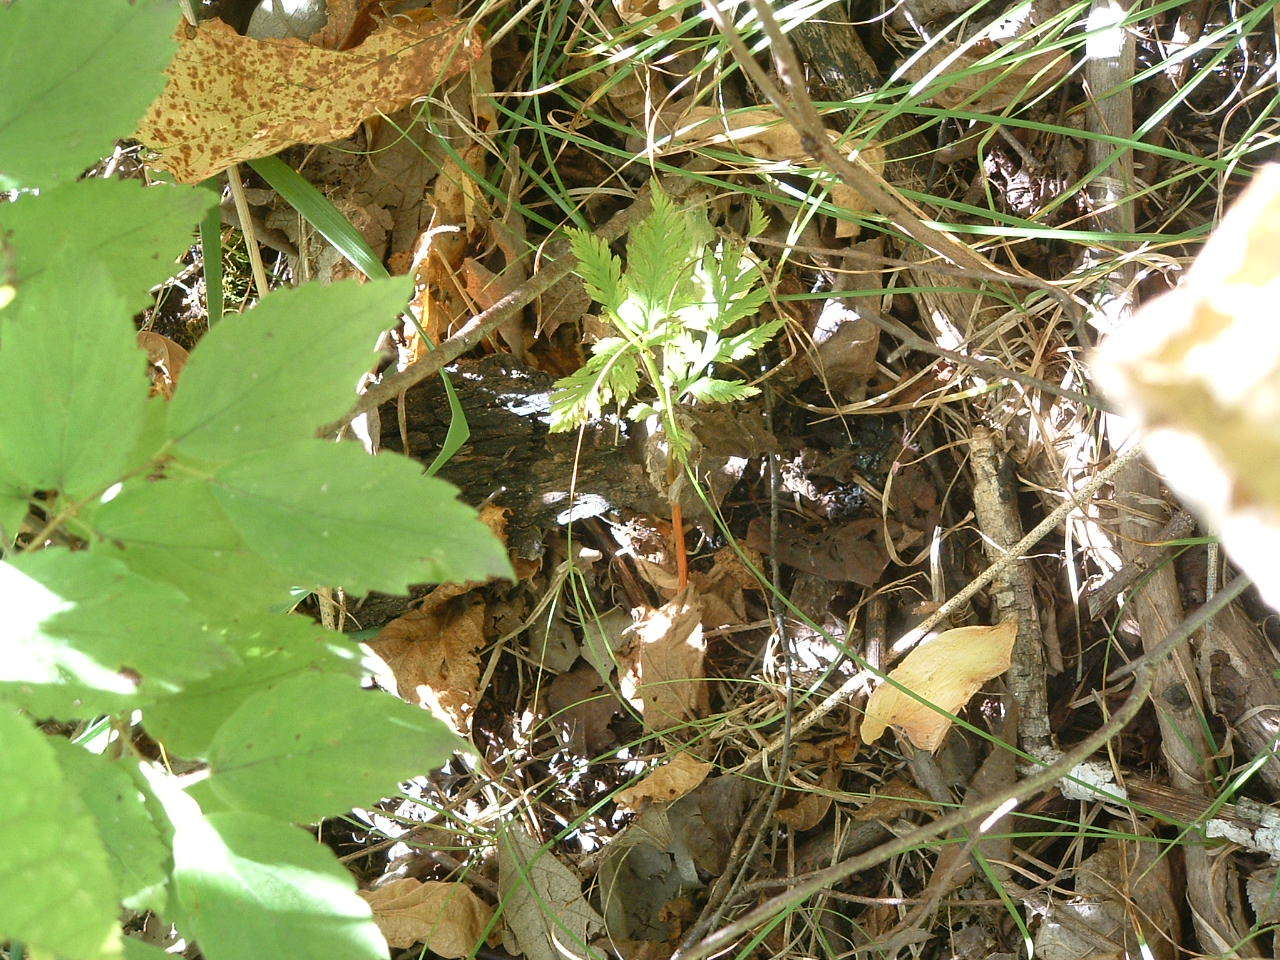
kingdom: Plantae
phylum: Tracheophyta
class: Polypodiopsida
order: Ophioglossales
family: Ophioglossaceae
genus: Botrypus
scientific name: Botrypus virginianus
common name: Common grapefern
